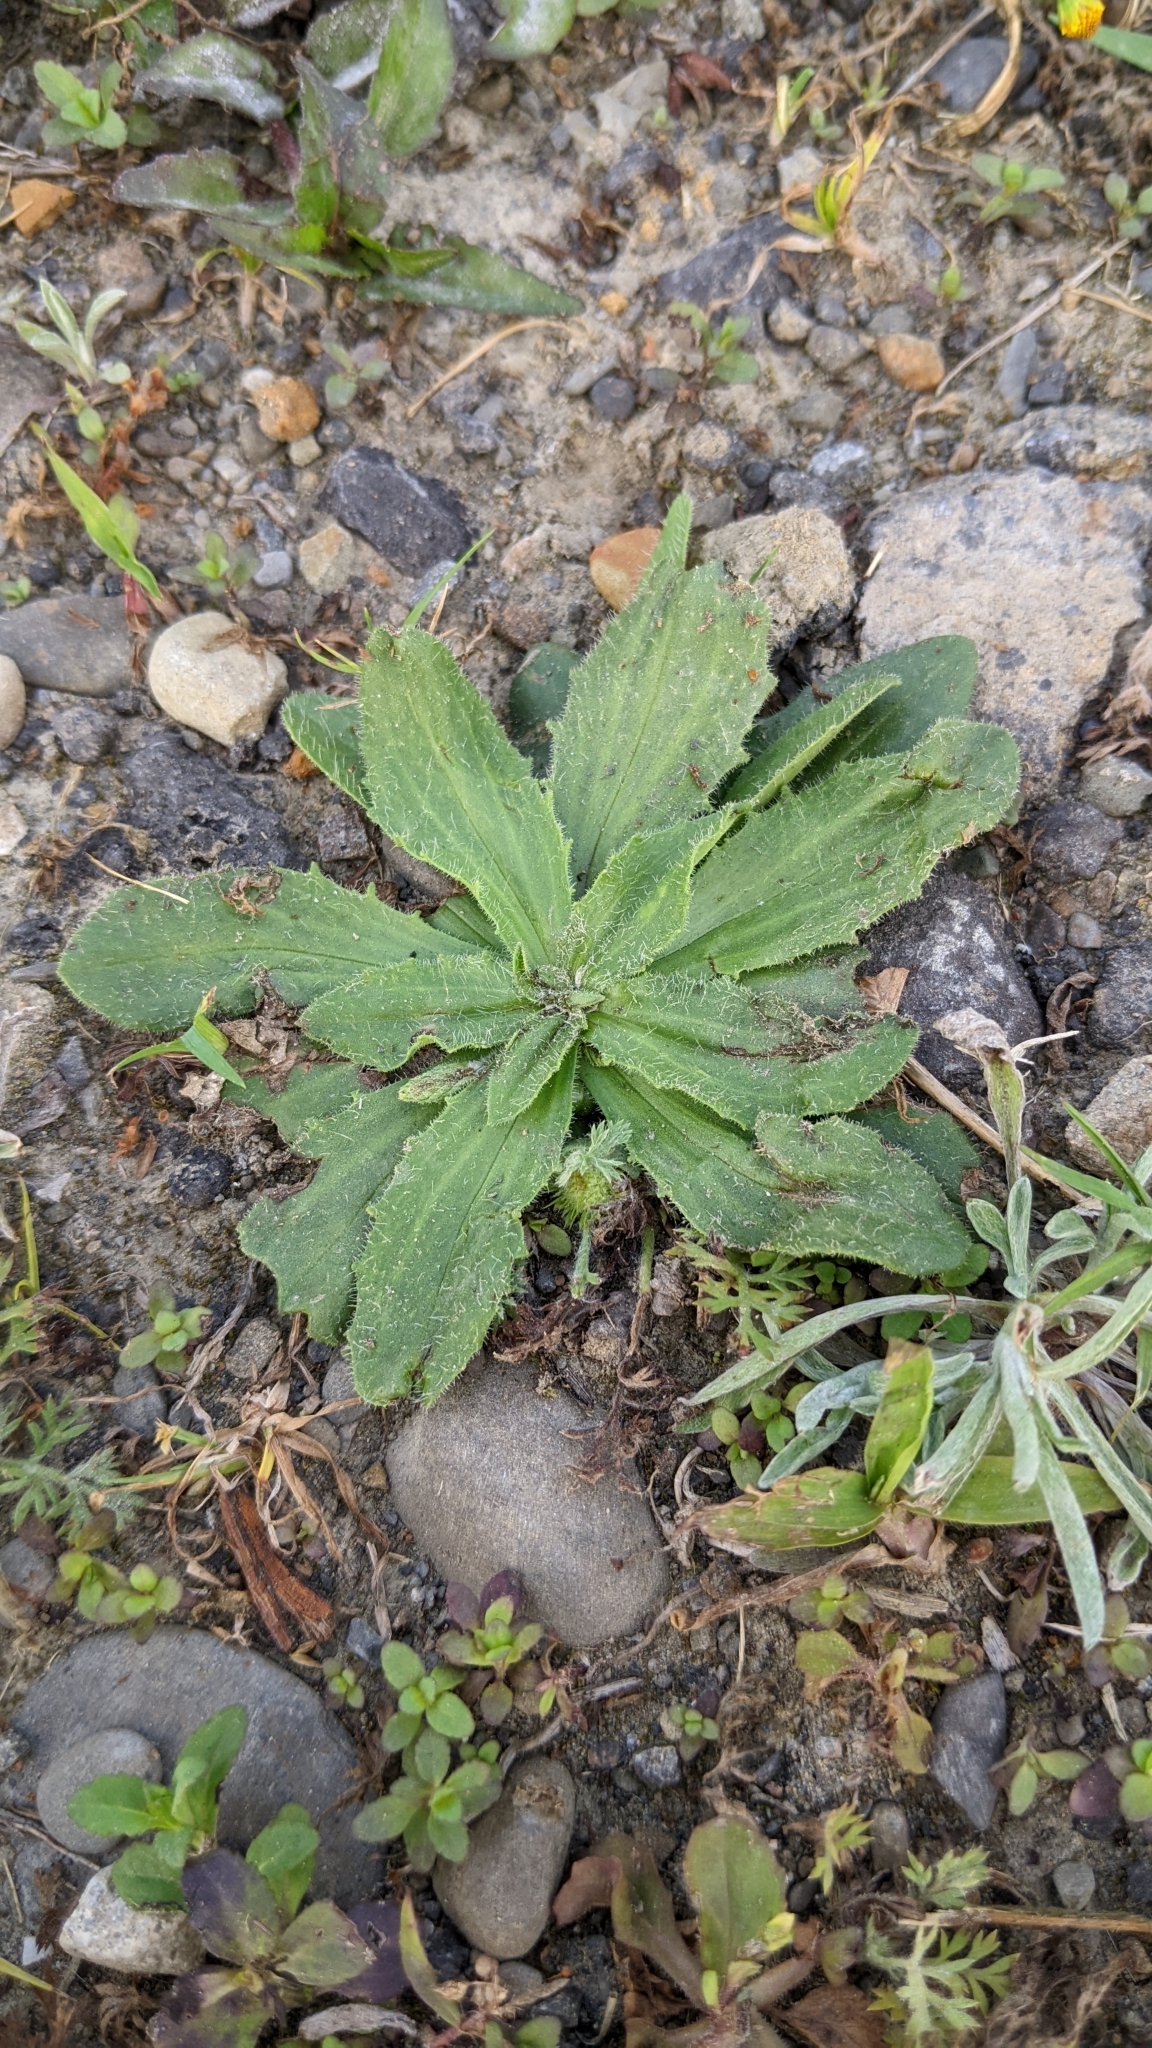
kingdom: Plantae
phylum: Tracheophyta
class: Magnoliopsida
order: Lamiales
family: Plantaginaceae
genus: Plantago
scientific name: Plantago virginica
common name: Hoary plantain
